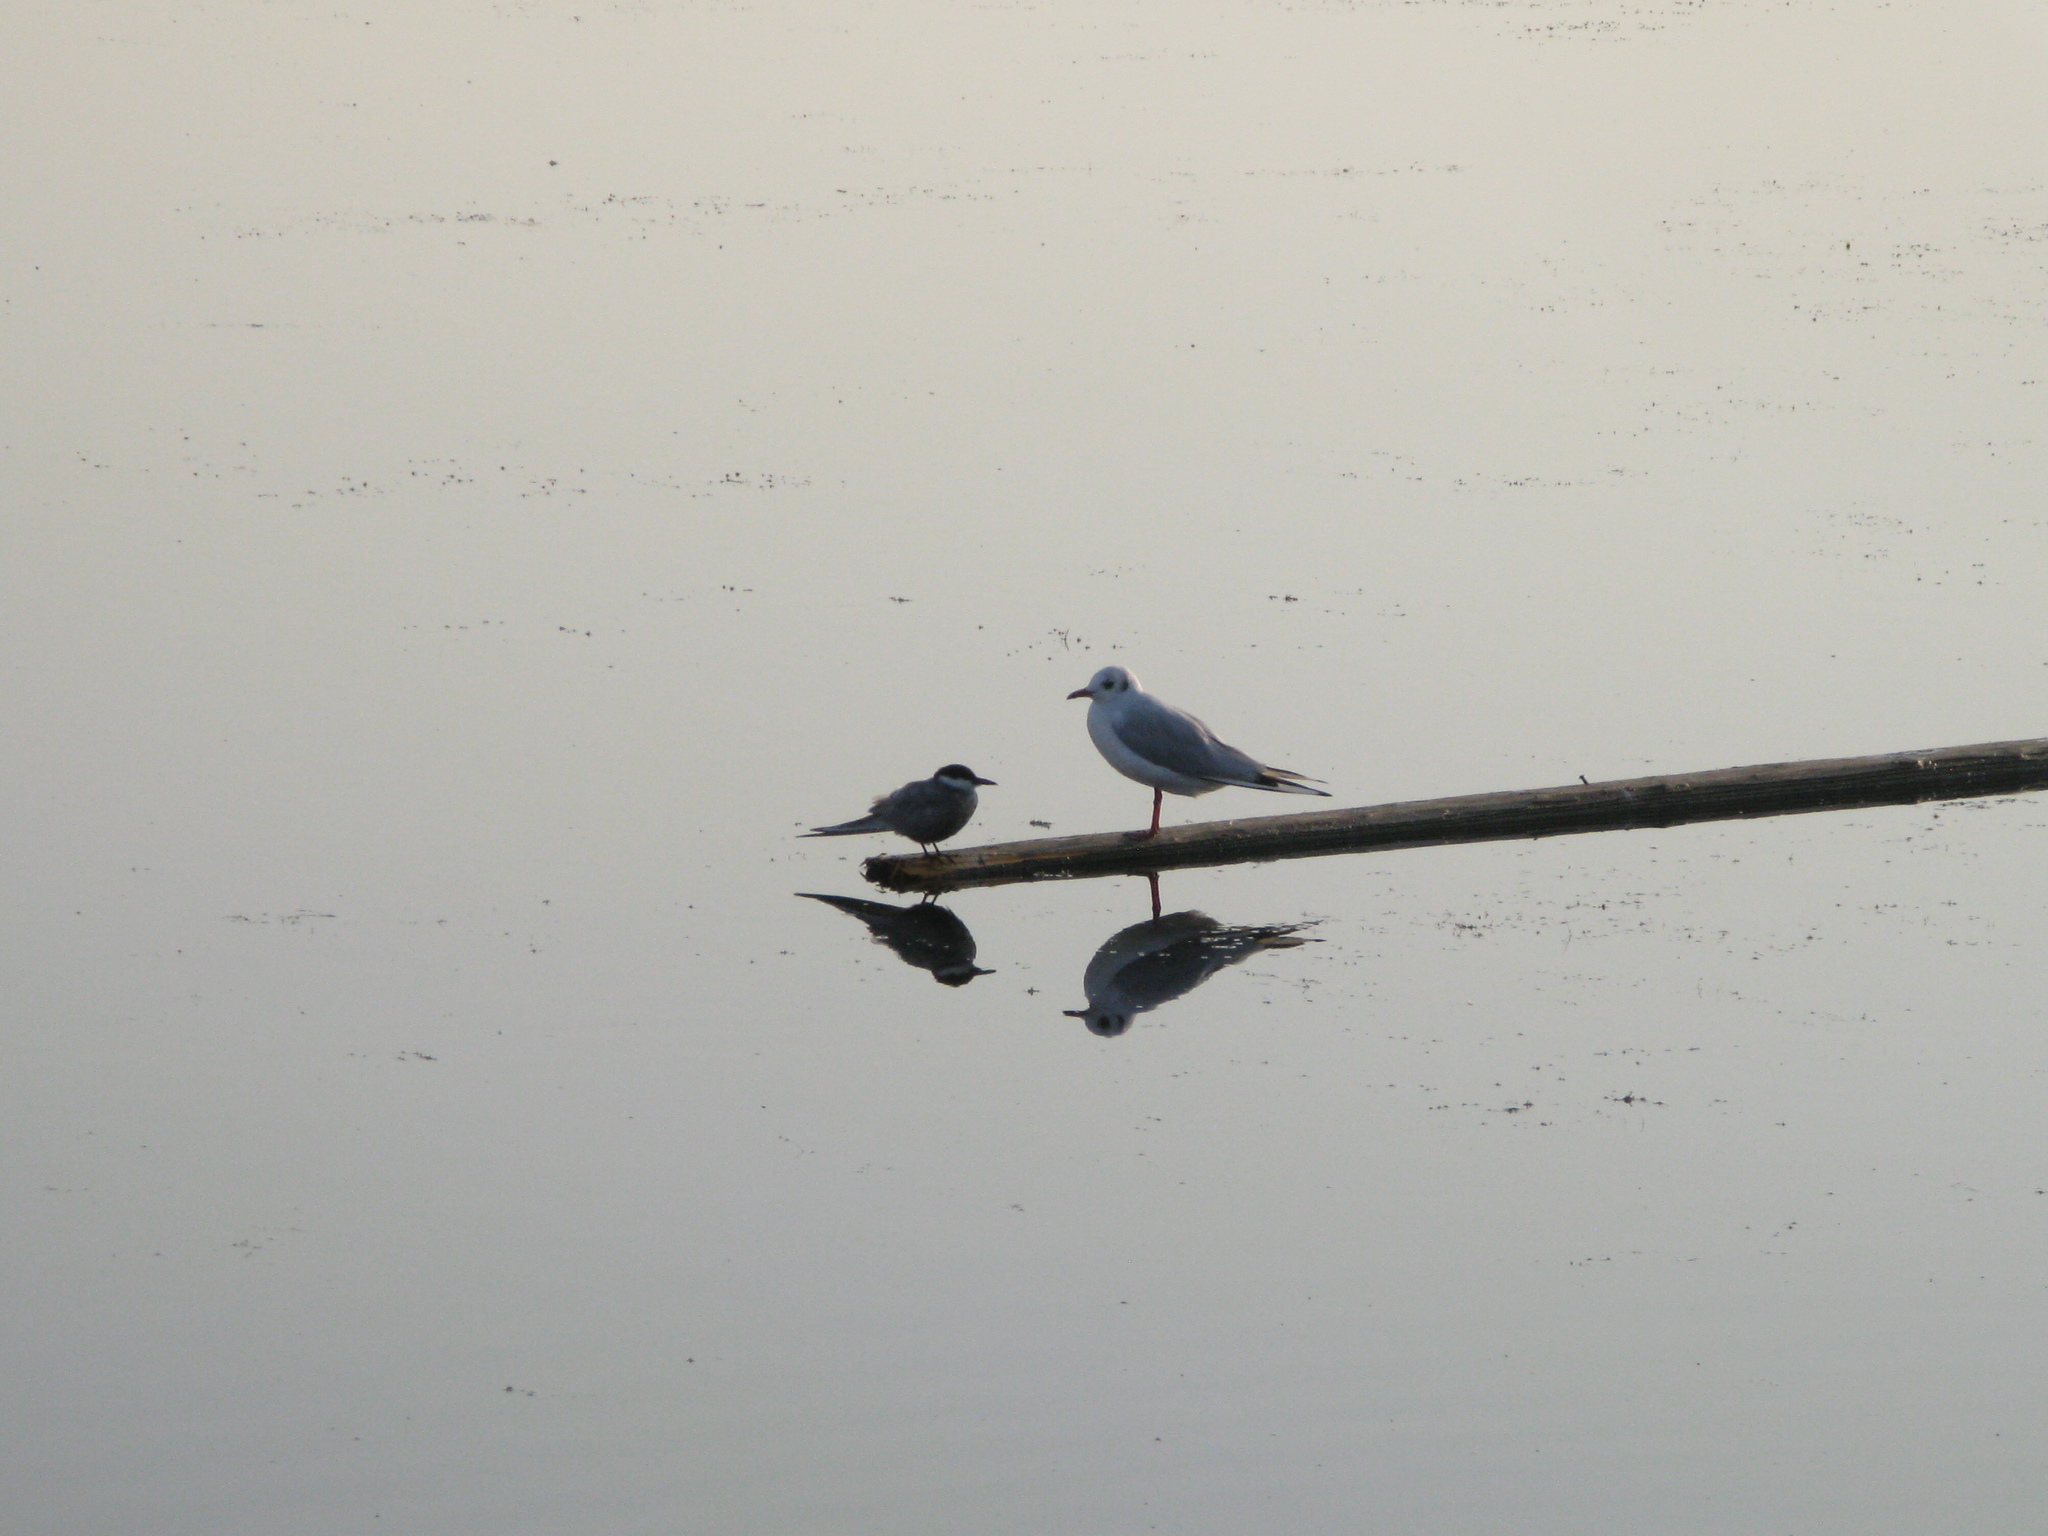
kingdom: Animalia
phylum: Chordata
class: Aves
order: Charadriiformes
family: Laridae
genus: Chlidonias
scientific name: Chlidonias hybrida
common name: Whiskered tern
